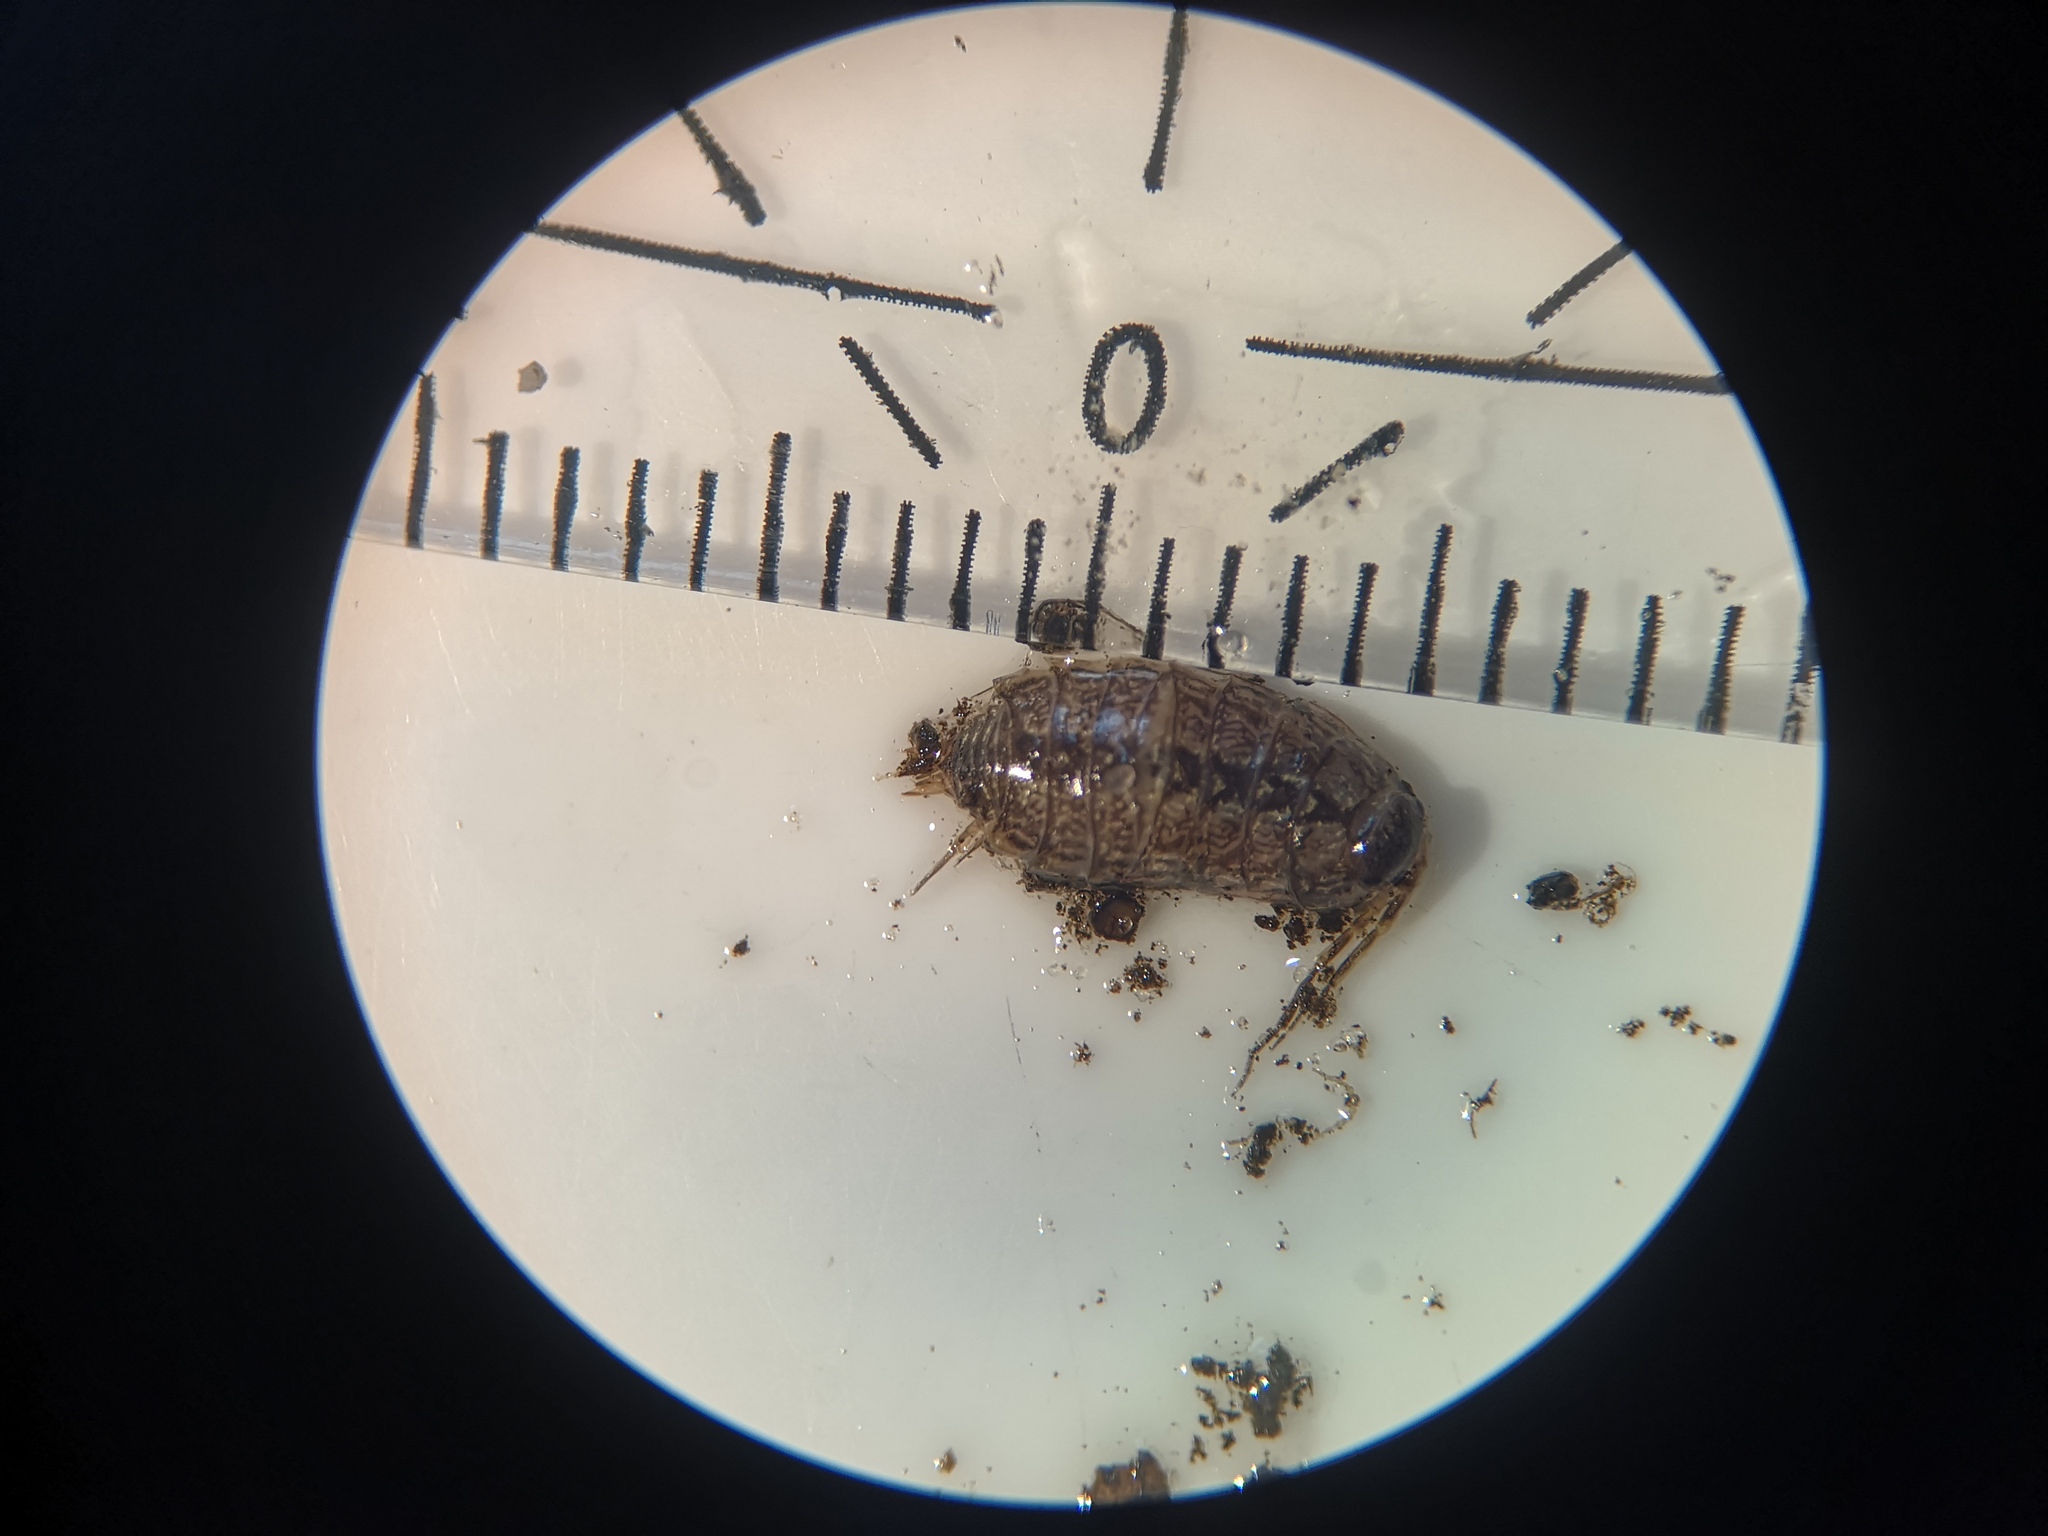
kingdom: Animalia
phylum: Arthropoda
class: Malacostraca
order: Isopoda
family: Philosciidae
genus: Philoscia
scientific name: Philoscia muscorum
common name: Common striped woodlouse
